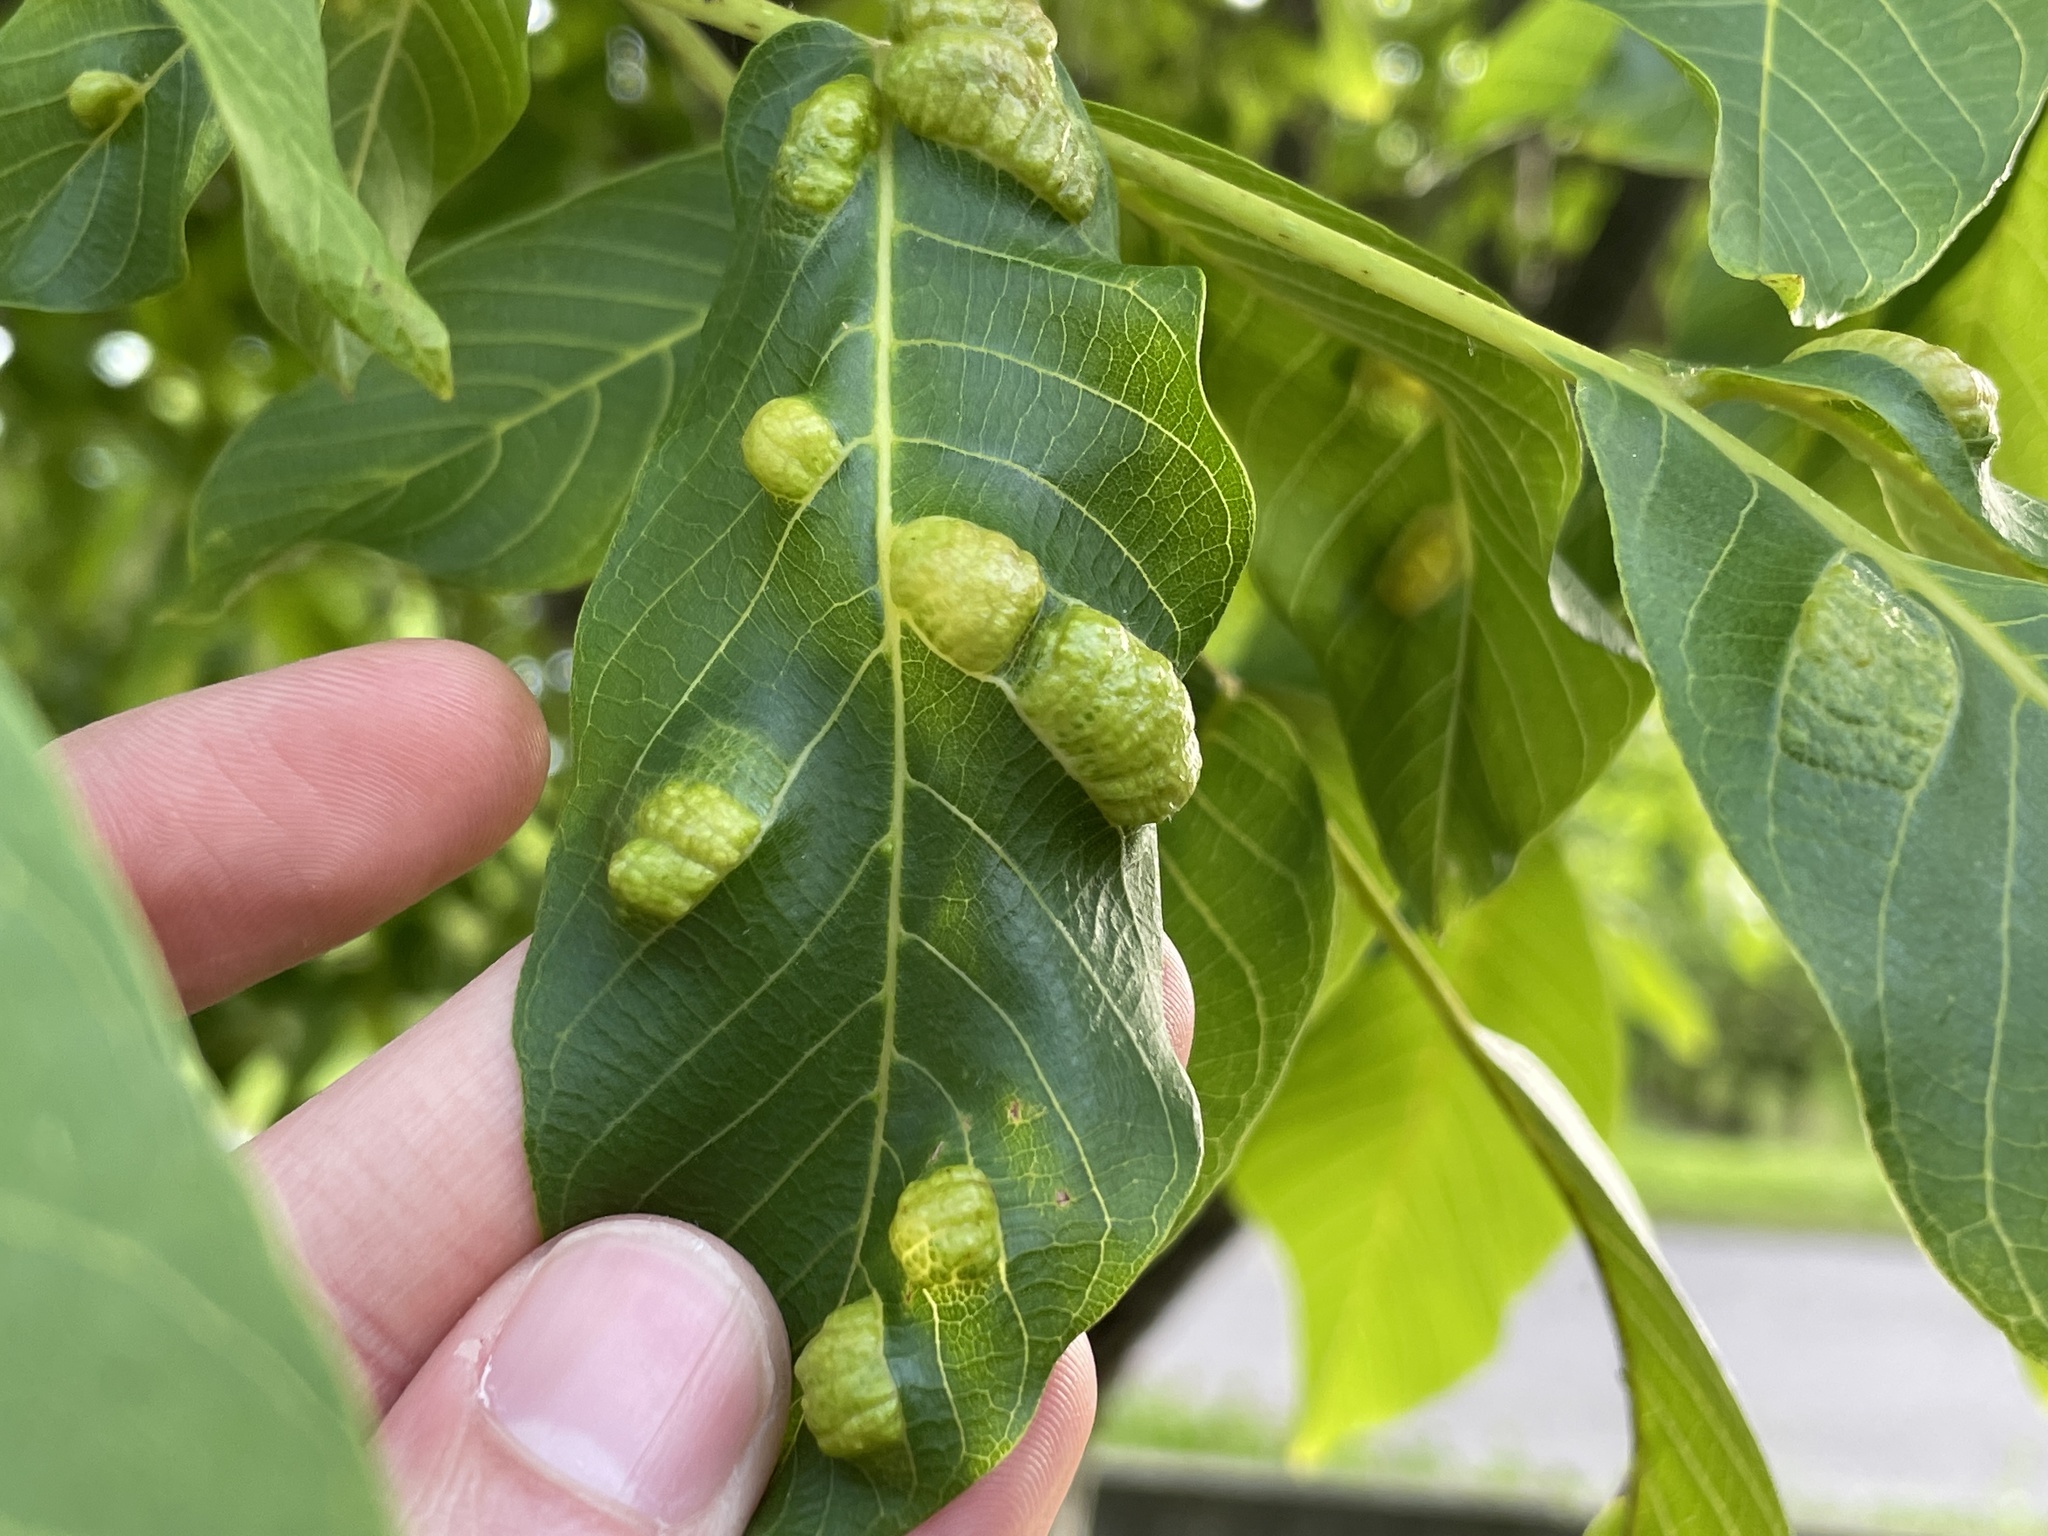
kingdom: Animalia
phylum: Arthropoda
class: Arachnida
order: Trombidiformes
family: Eriophyidae
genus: Aceria
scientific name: Aceria erinea
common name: Persian walnut erineum mite
